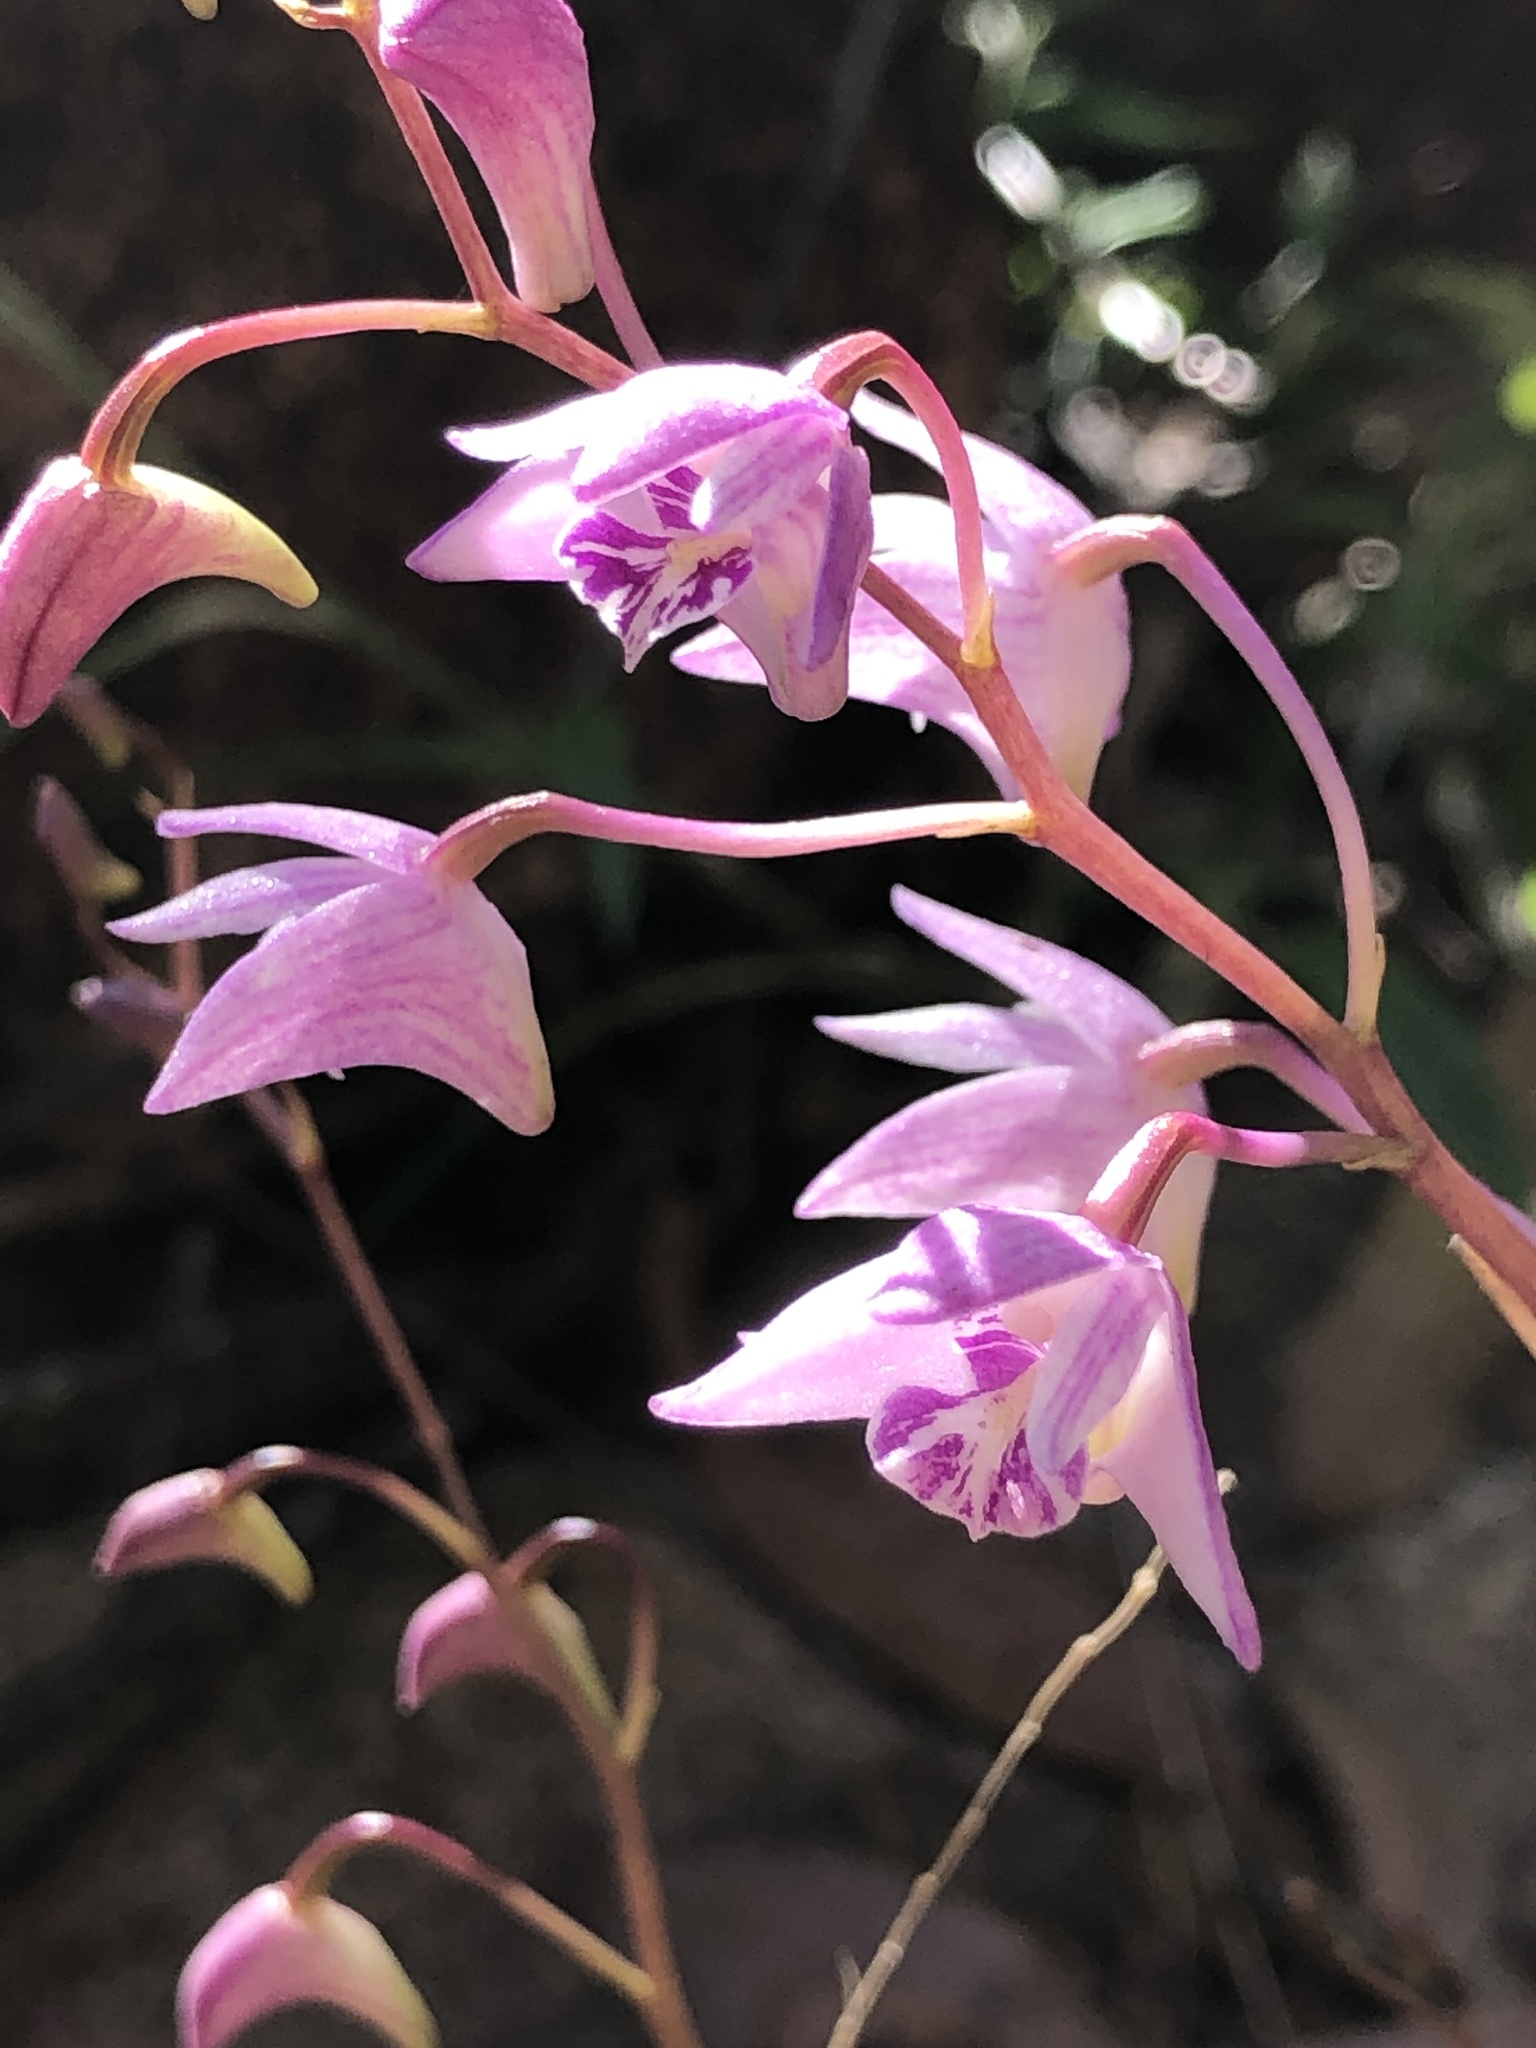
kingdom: Plantae
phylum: Tracheophyta
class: Liliopsida
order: Asparagales
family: Orchidaceae
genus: Dendrobium
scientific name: Dendrobium kingianum
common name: Pink rock orchid
